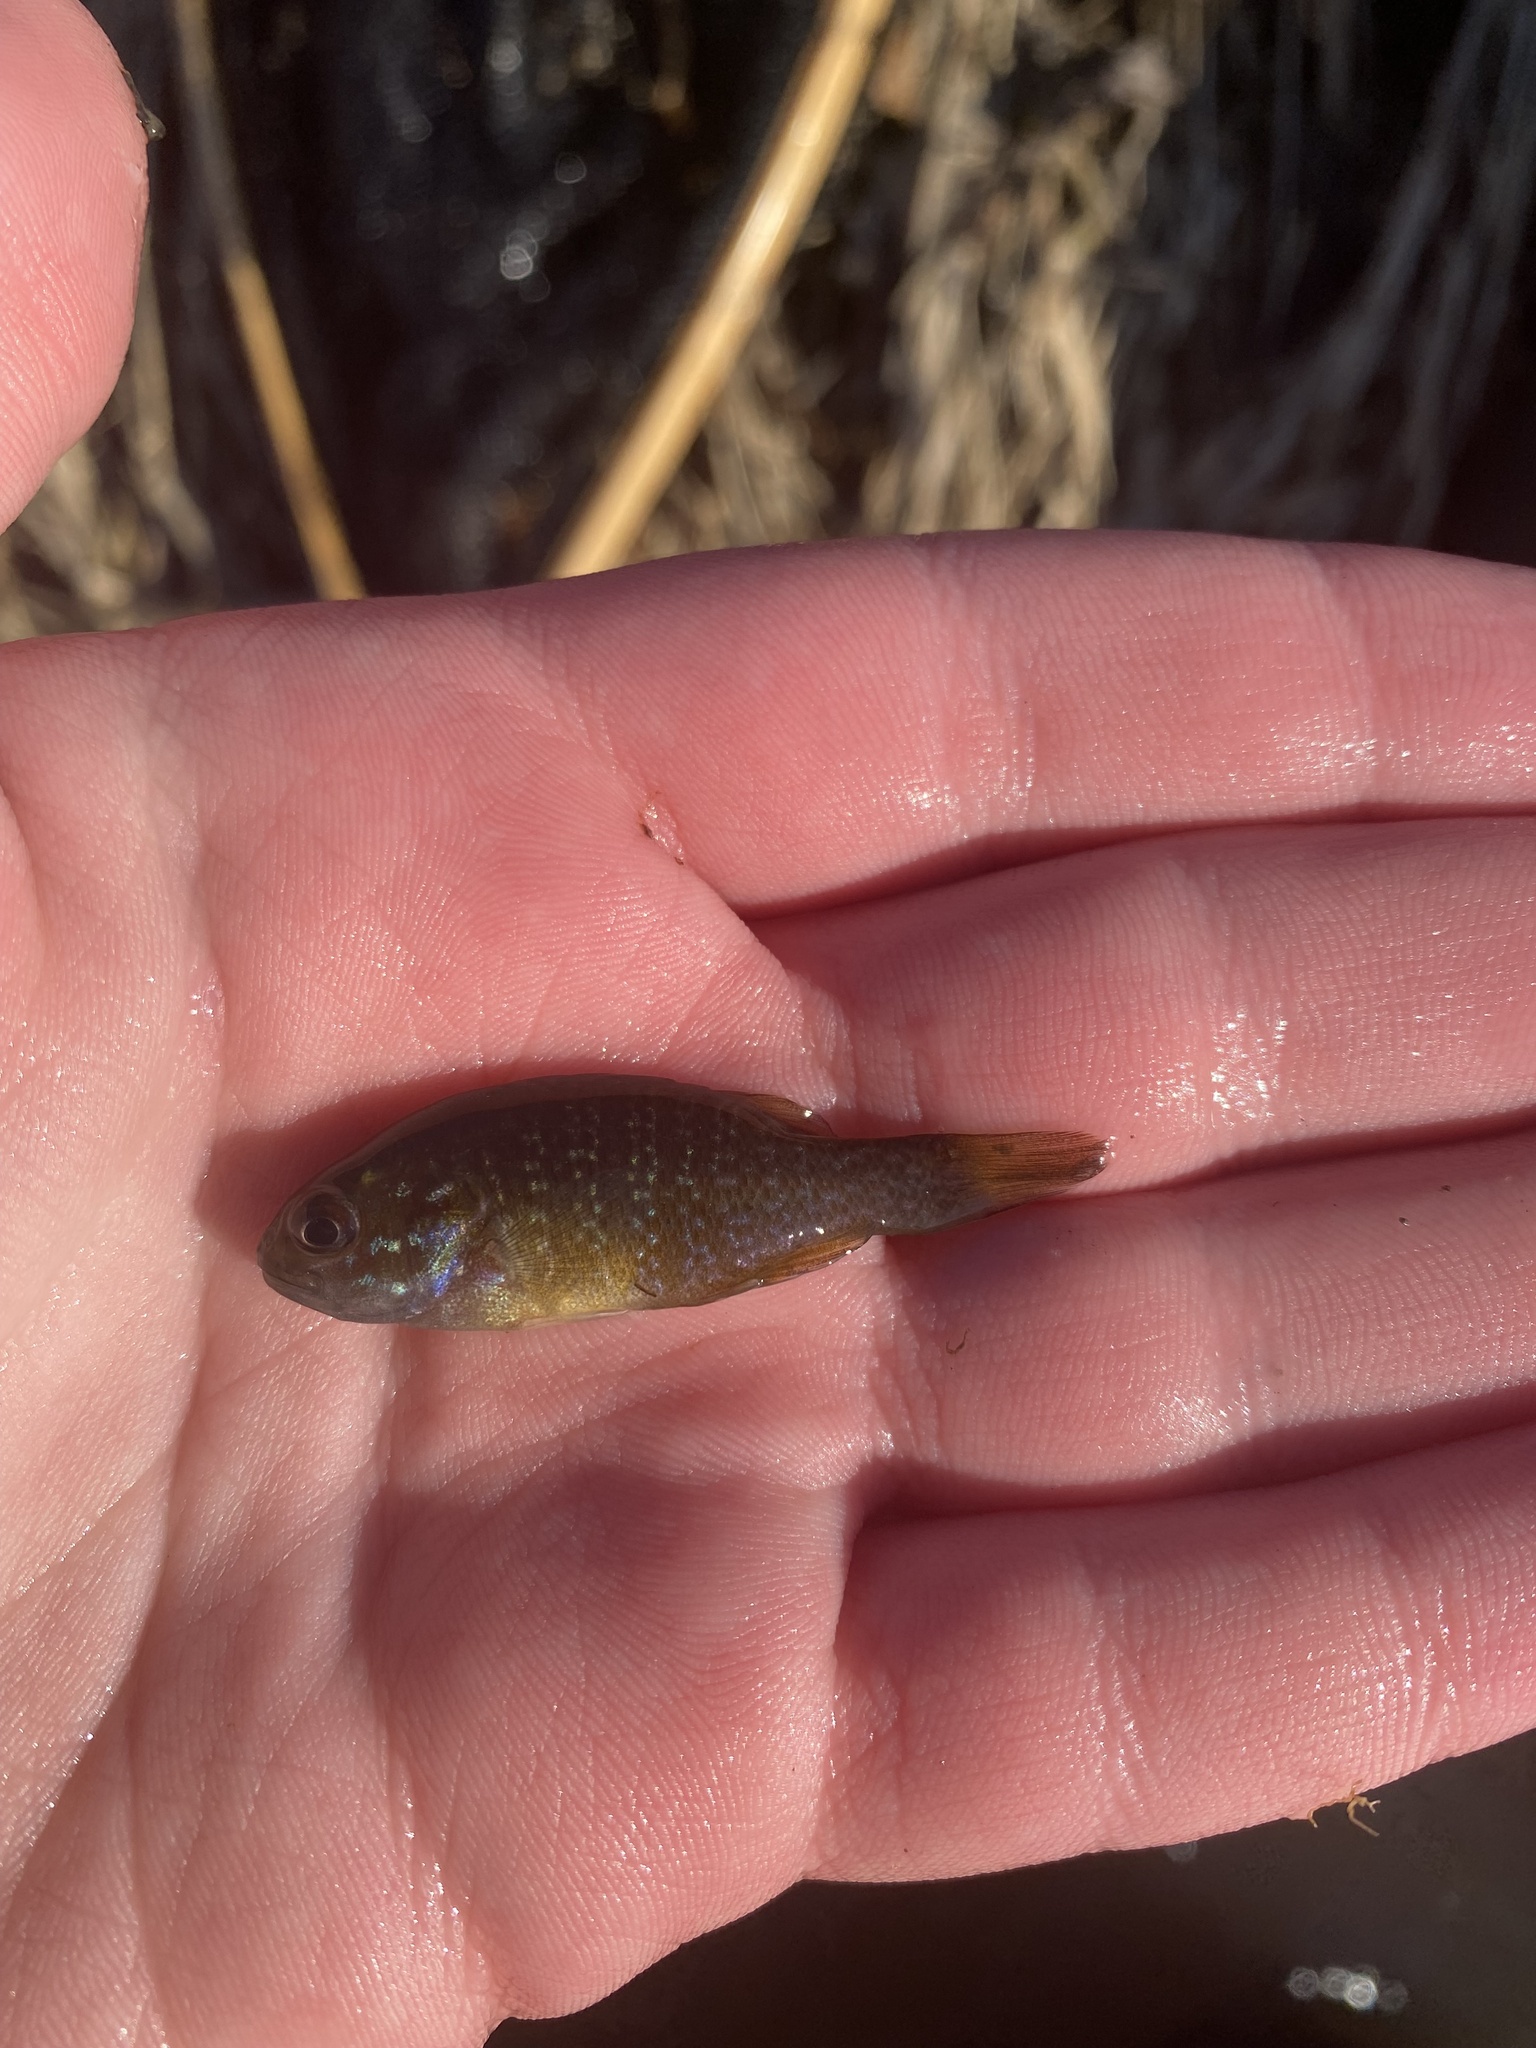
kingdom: Animalia
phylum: Chordata
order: Perciformes
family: Centrarchidae
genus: Lepomis
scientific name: Lepomis cyanellus
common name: Green sunfish
